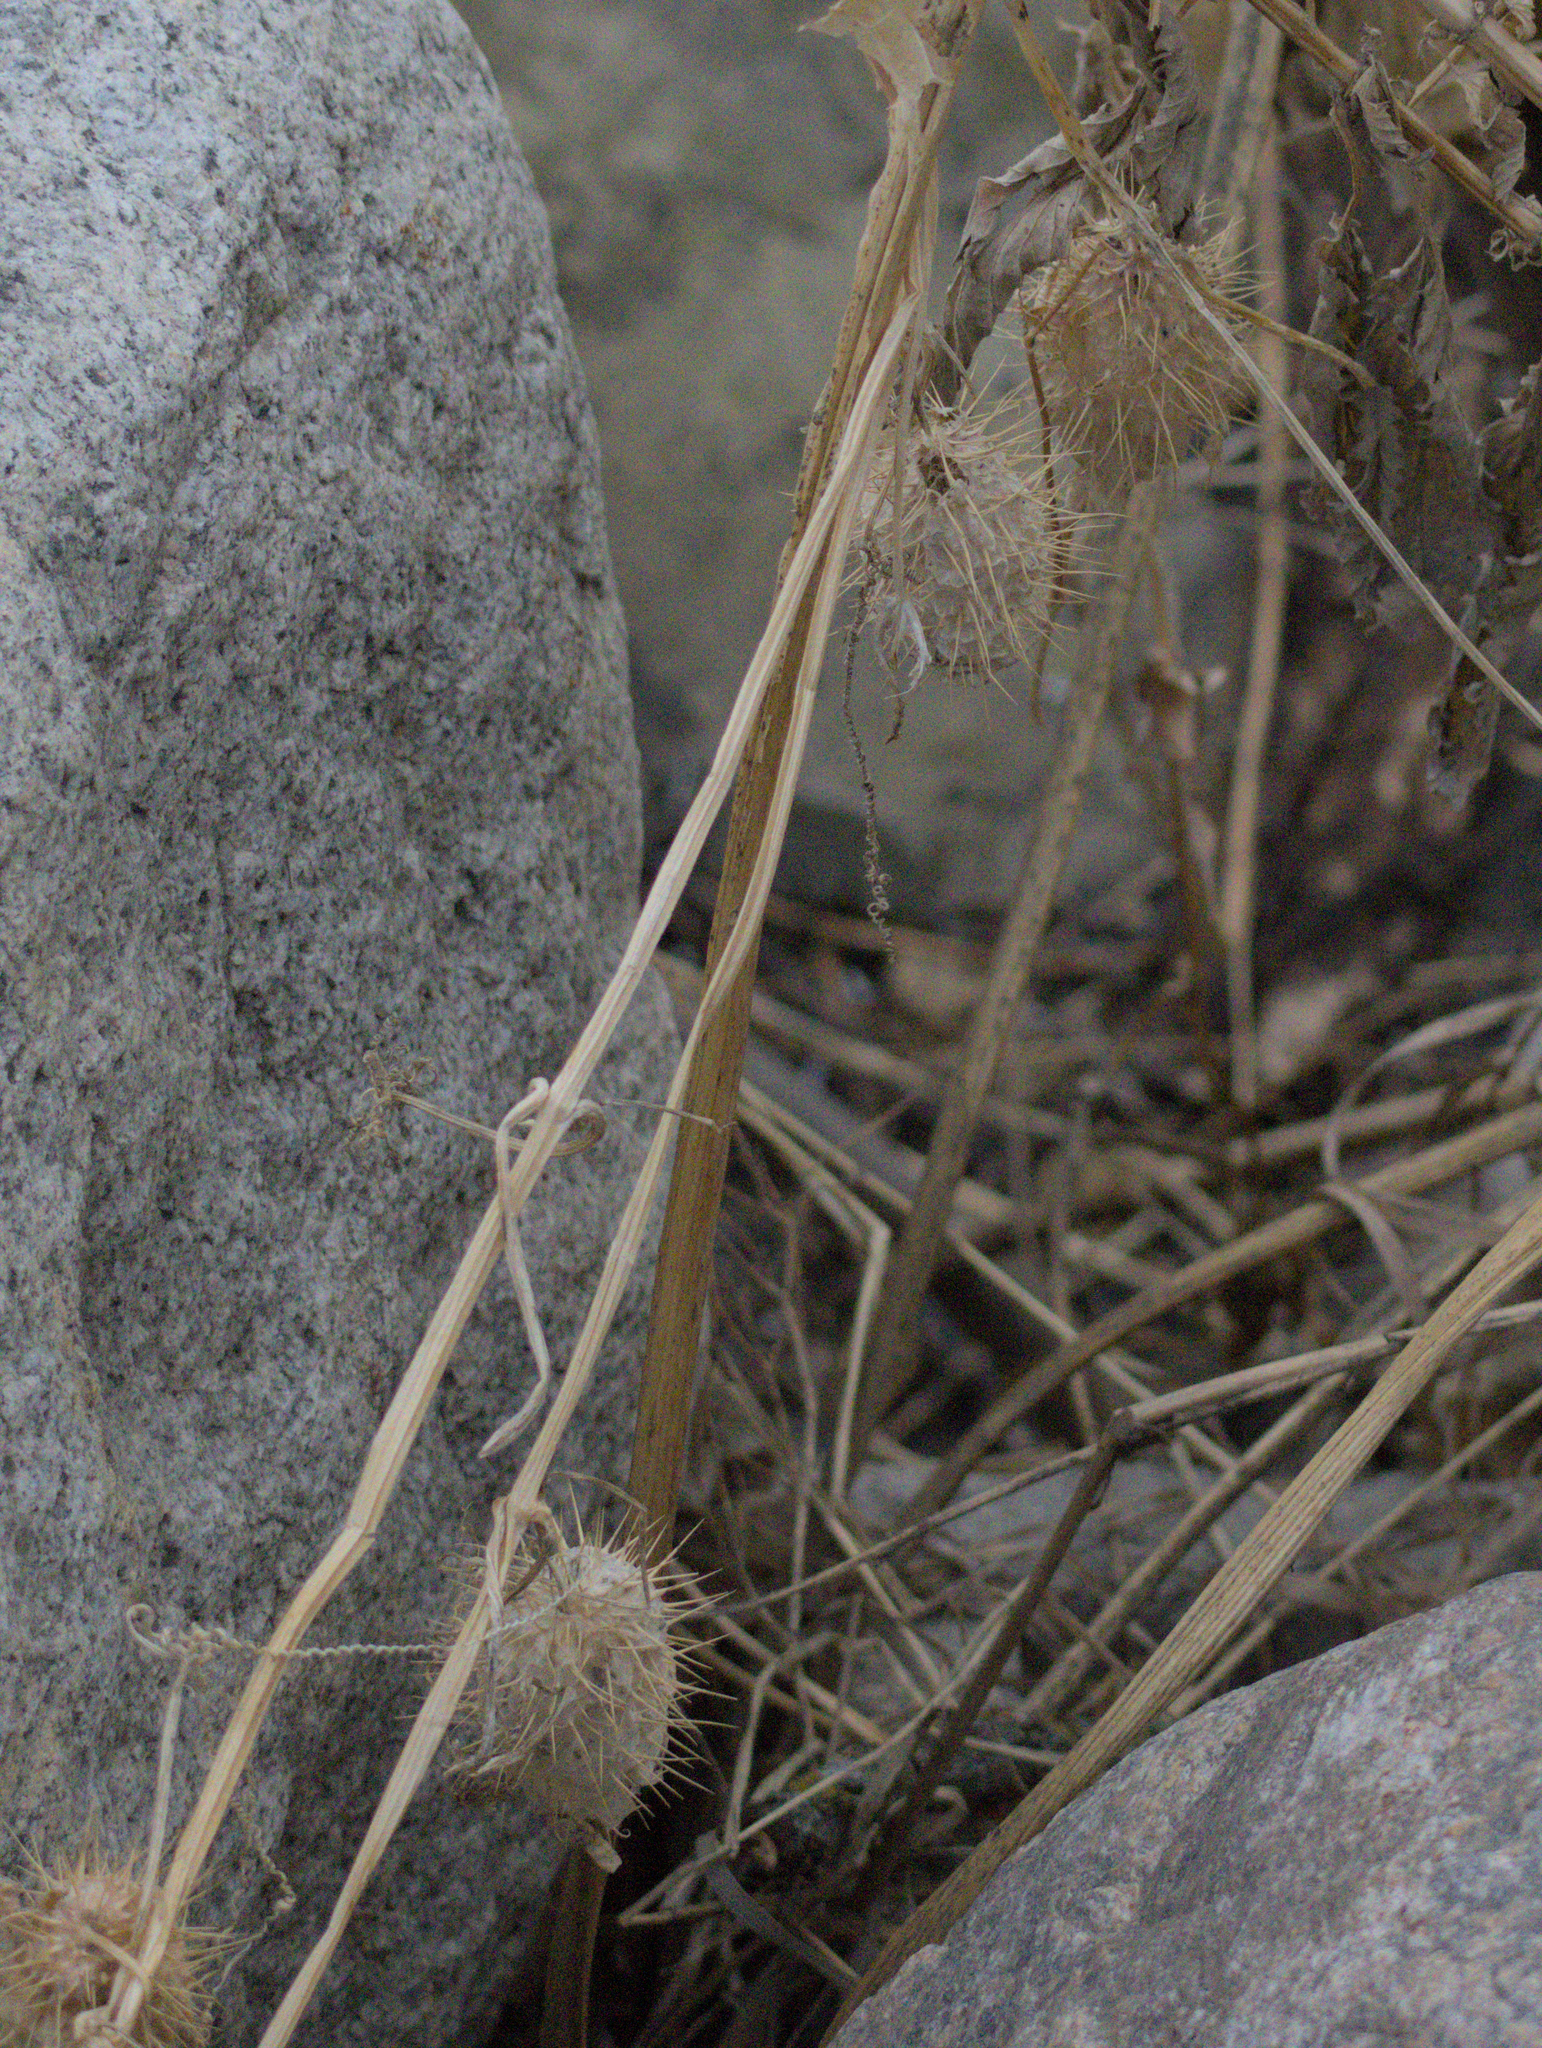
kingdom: Plantae
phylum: Tracheophyta
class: Magnoliopsida
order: Cucurbitales
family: Cucurbitaceae
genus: Echinocystis
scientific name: Echinocystis lobata
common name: Wild cucumber
